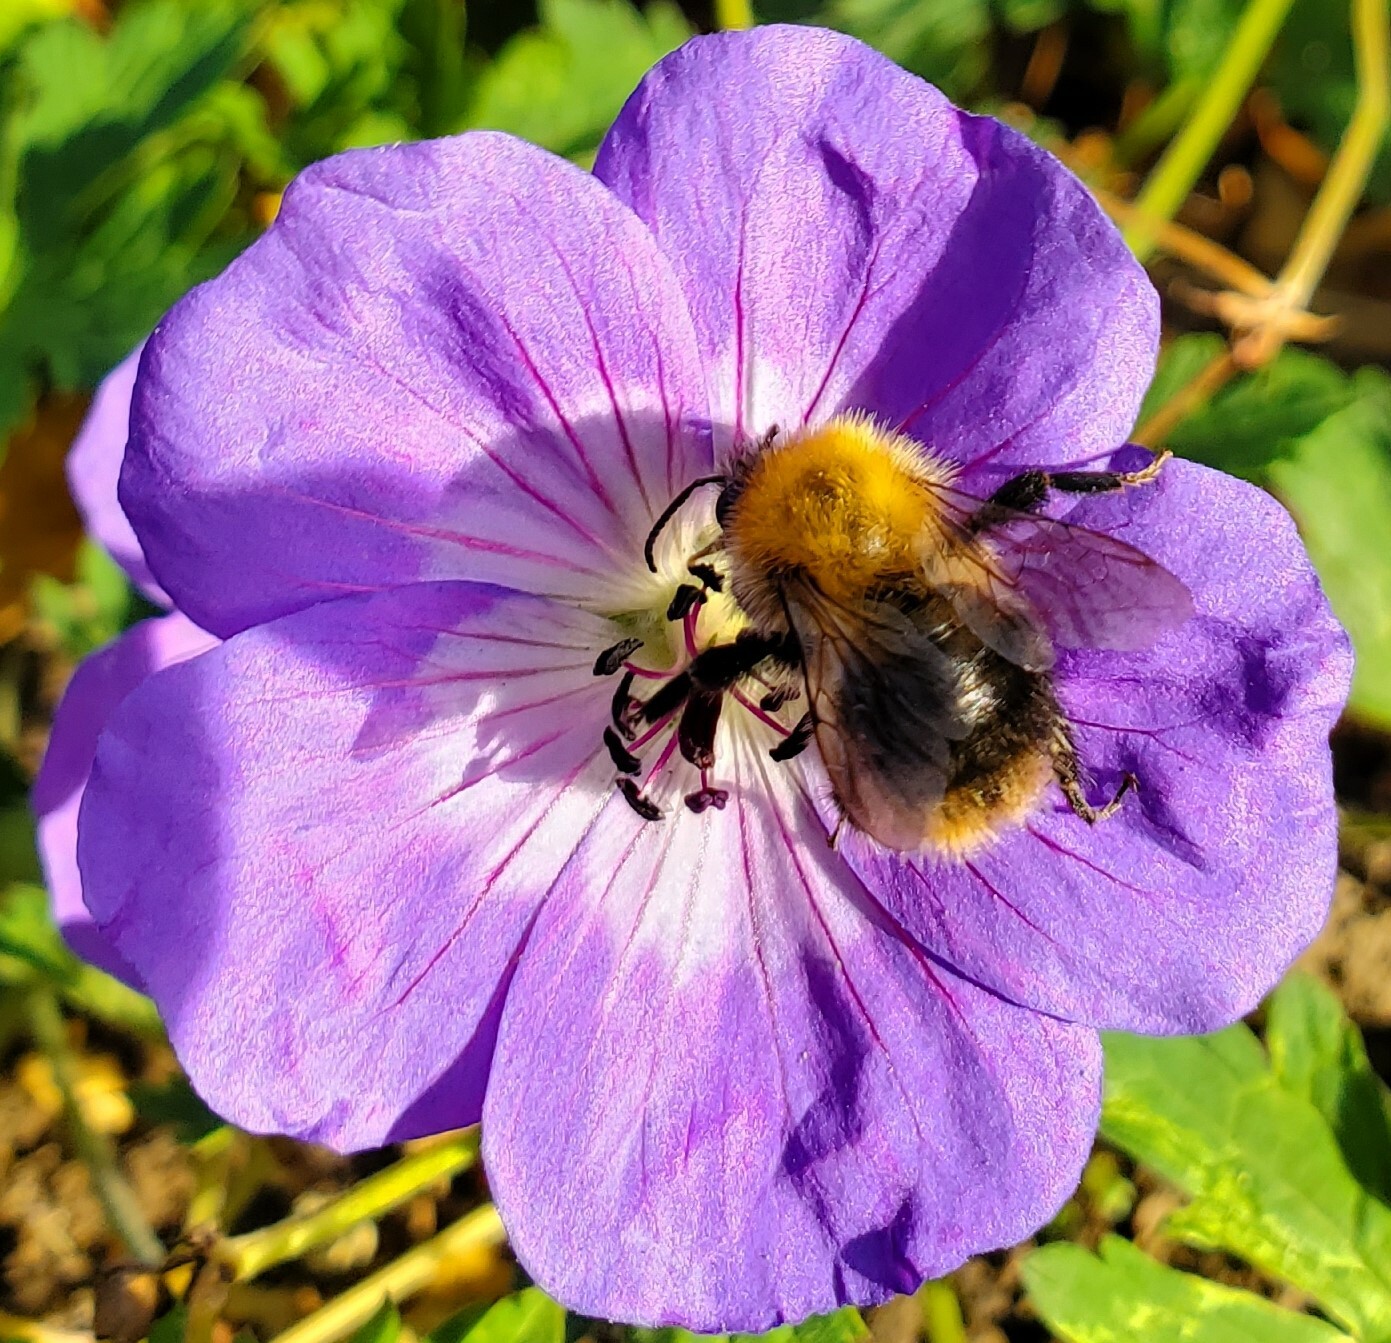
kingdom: Animalia
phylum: Arthropoda
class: Insecta
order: Hymenoptera
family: Apidae
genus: Bombus
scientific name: Bombus pascuorum
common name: Common carder bee
